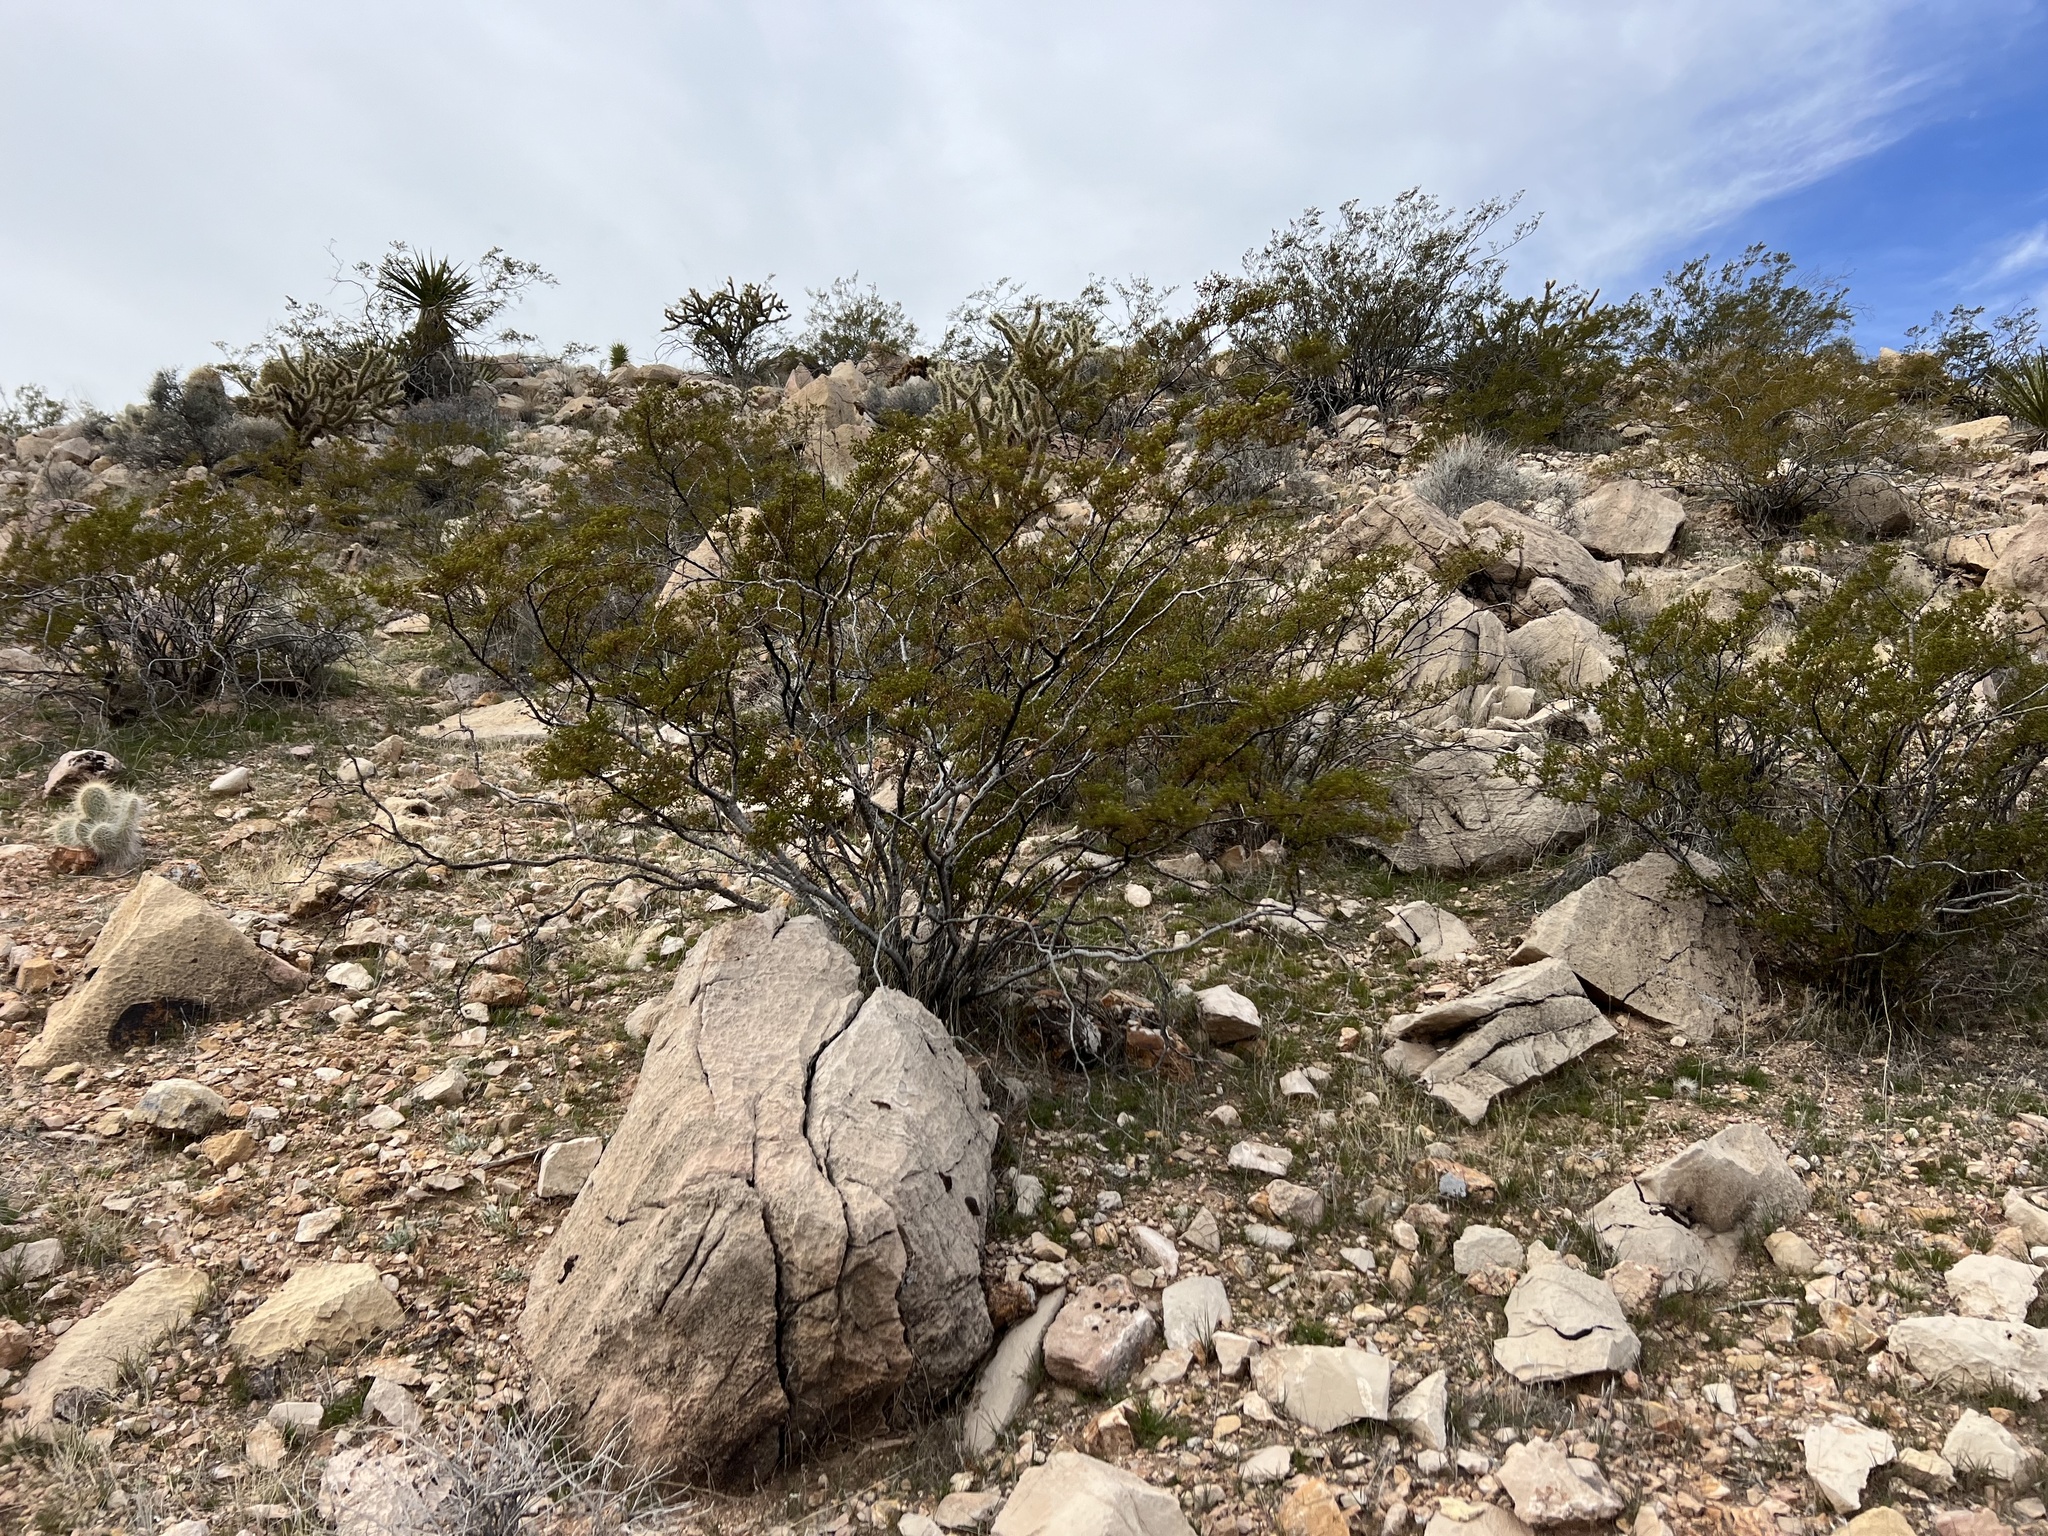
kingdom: Plantae
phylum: Tracheophyta
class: Magnoliopsida
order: Zygophyllales
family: Zygophyllaceae
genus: Larrea
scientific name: Larrea tridentata
